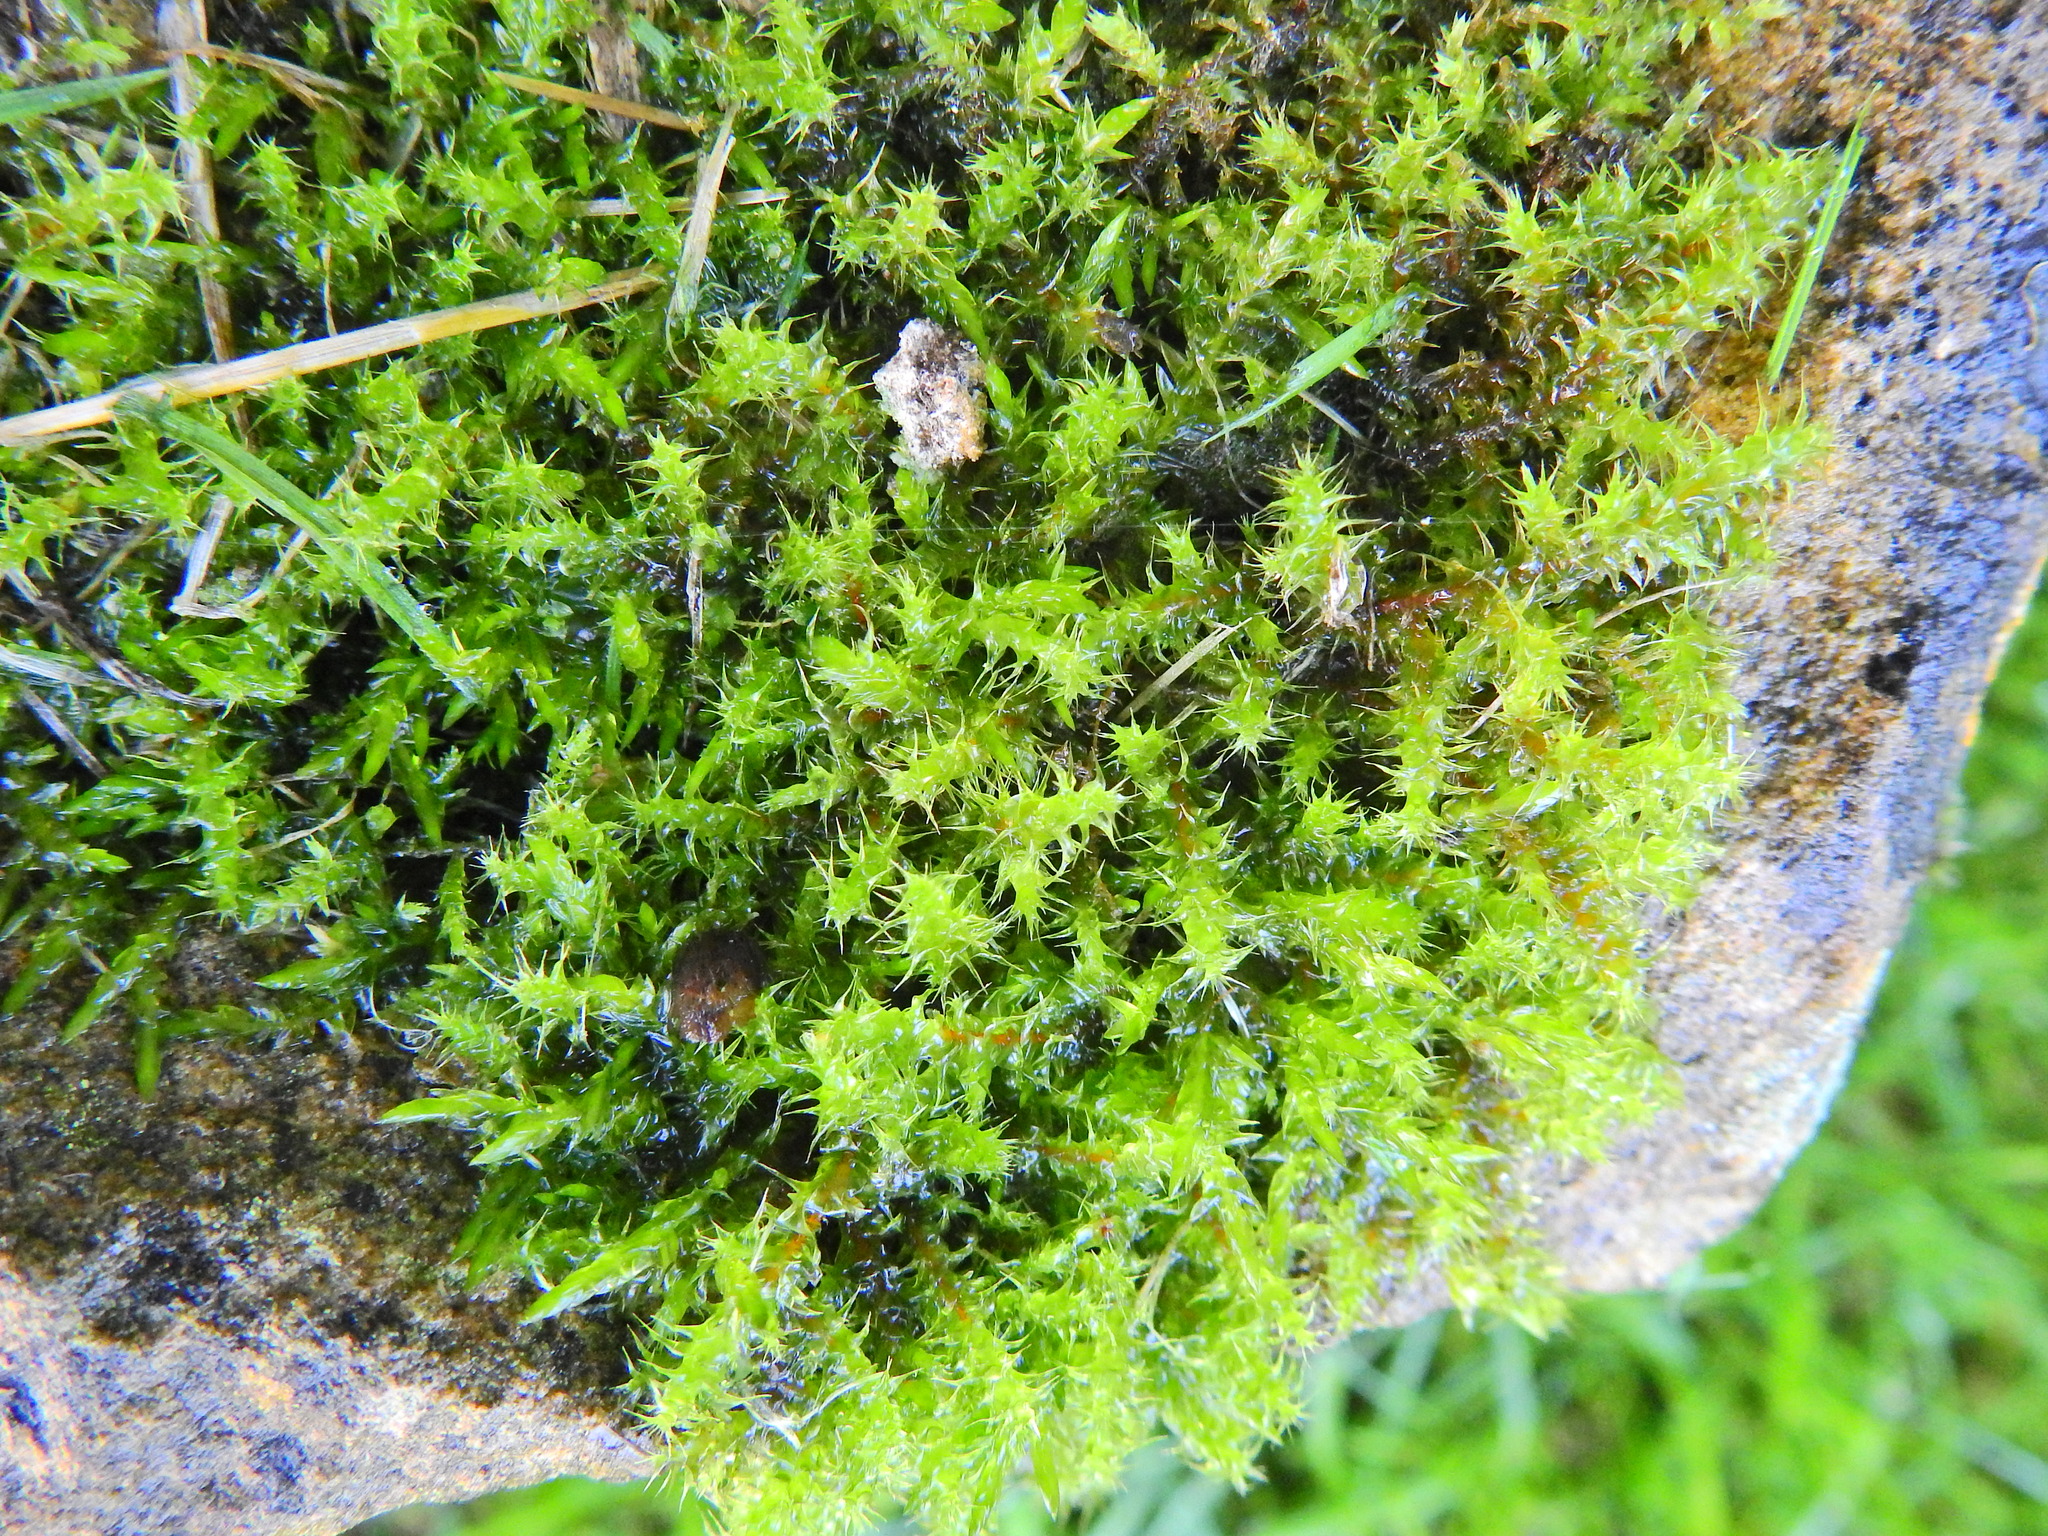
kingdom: Plantae
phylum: Bryophyta
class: Bryopsida
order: Hypnales
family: Hylocomiaceae
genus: Rhytidiadelphus
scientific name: Rhytidiadelphus squarrosus
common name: Springy turf-moss
